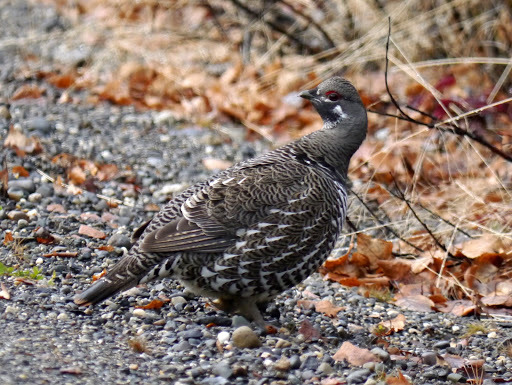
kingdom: Animalia
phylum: Chordata
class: Aves
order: Galliformes
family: Phasianidae
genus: Canachites
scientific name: Canachites canadensis
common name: Spruce grouse
